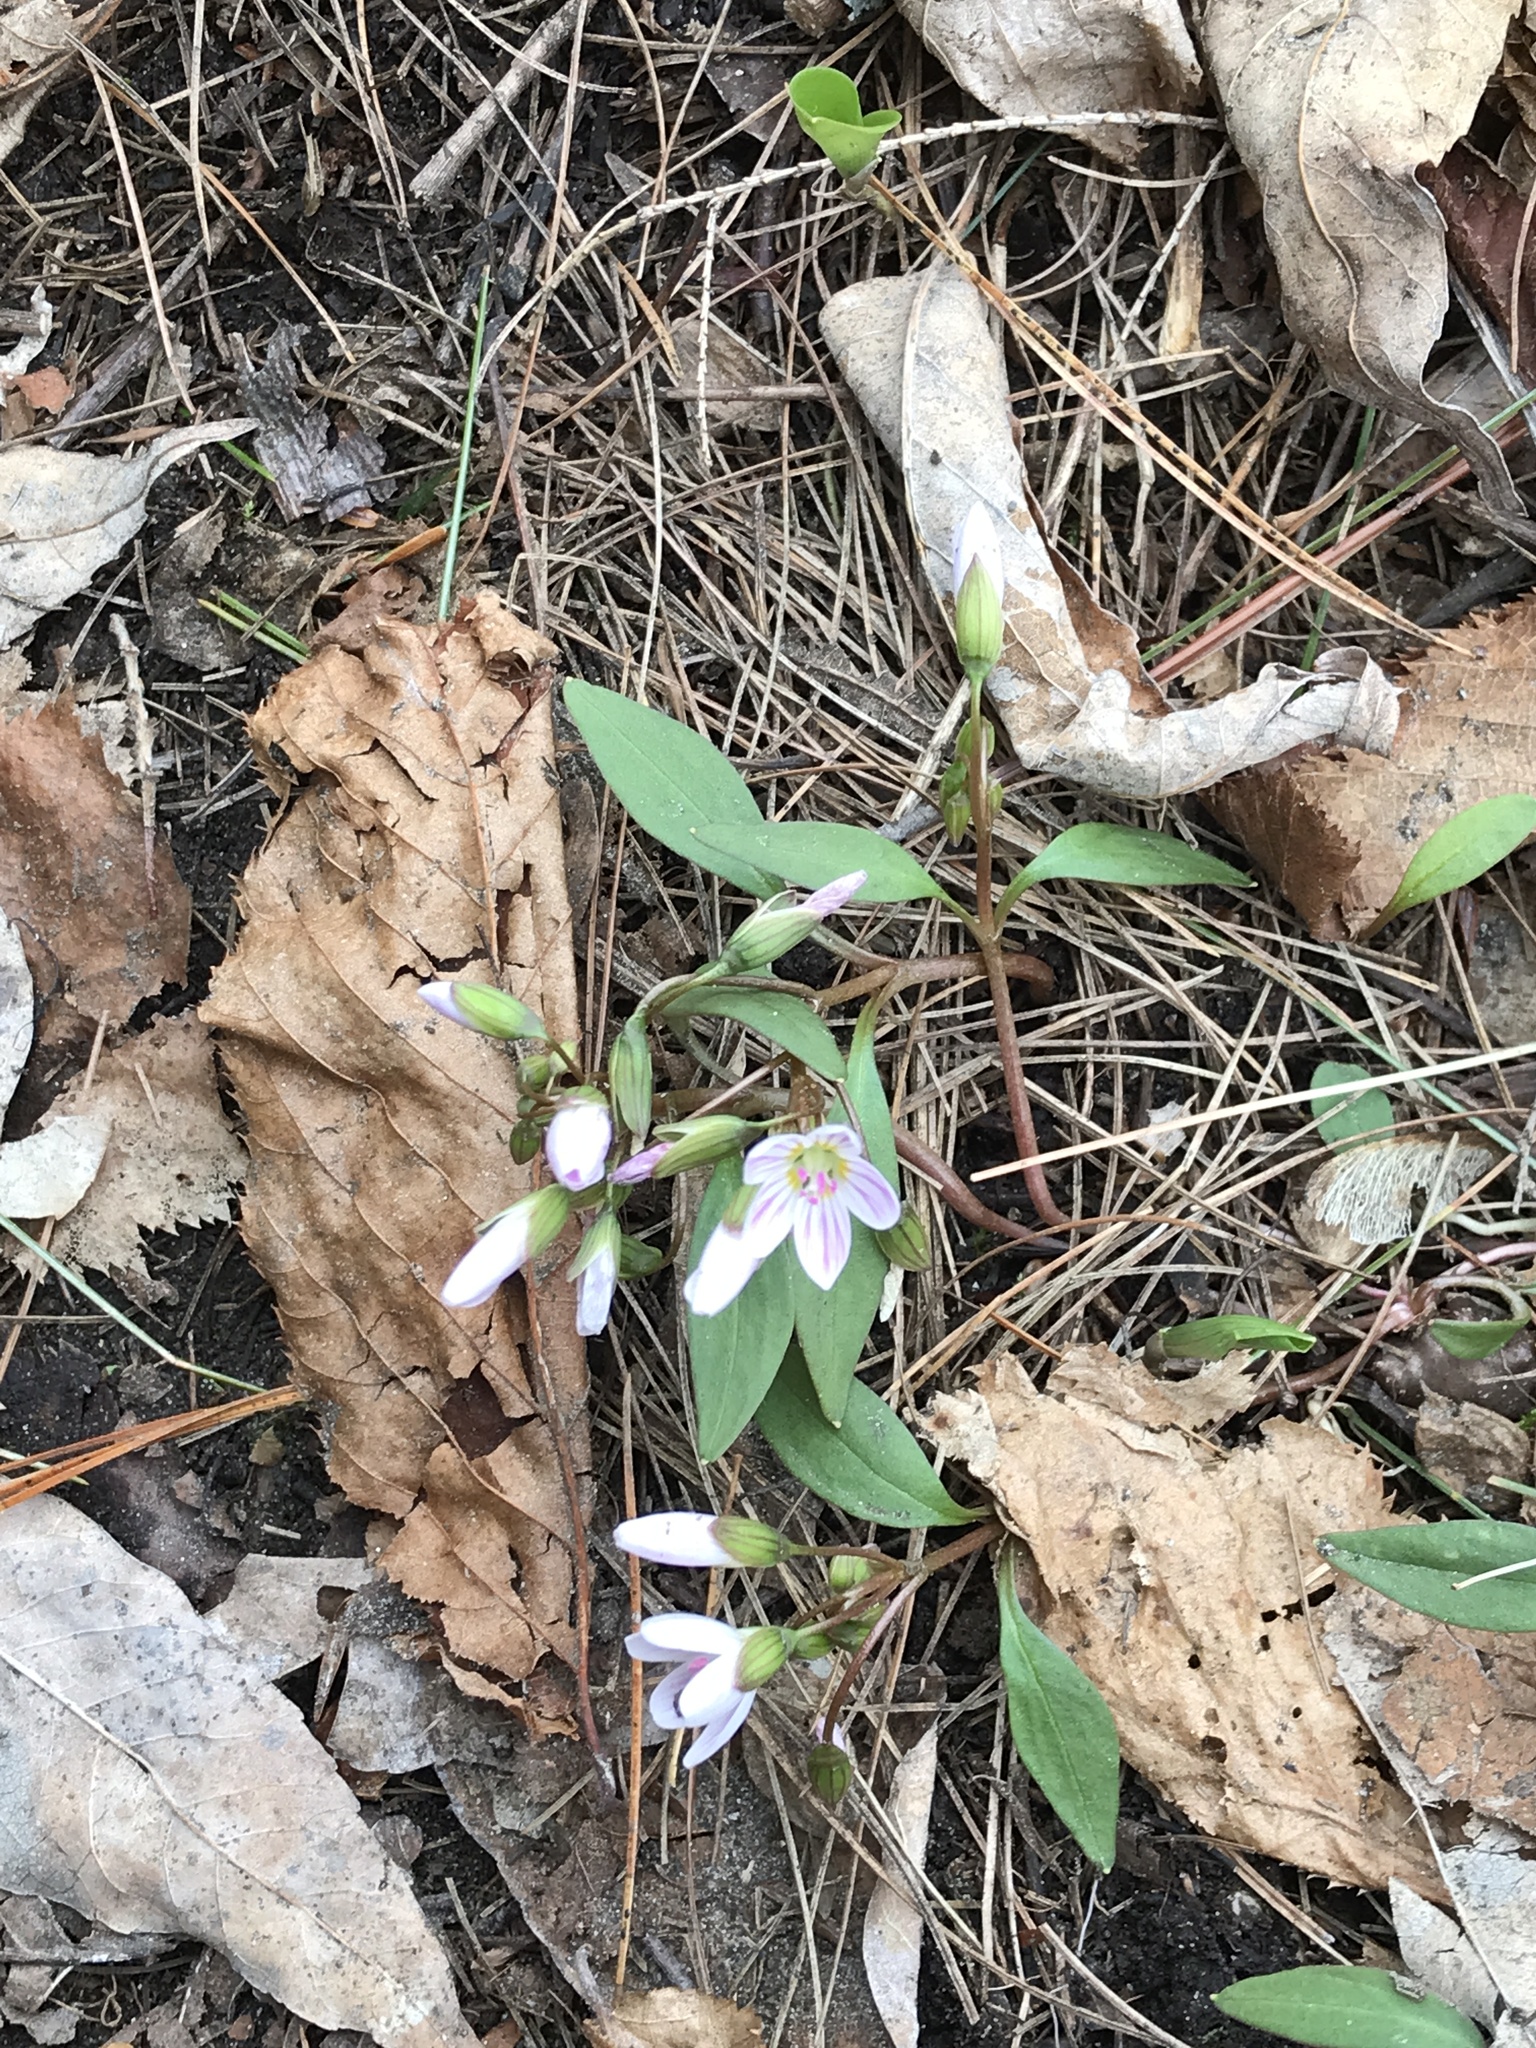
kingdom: Plantae
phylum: Tracheophyta
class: Magnoliopsida
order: Caryophyllales
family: Montiaceae
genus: Claytonia
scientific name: Claytonia caroliniana
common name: Carolina spring beauty
